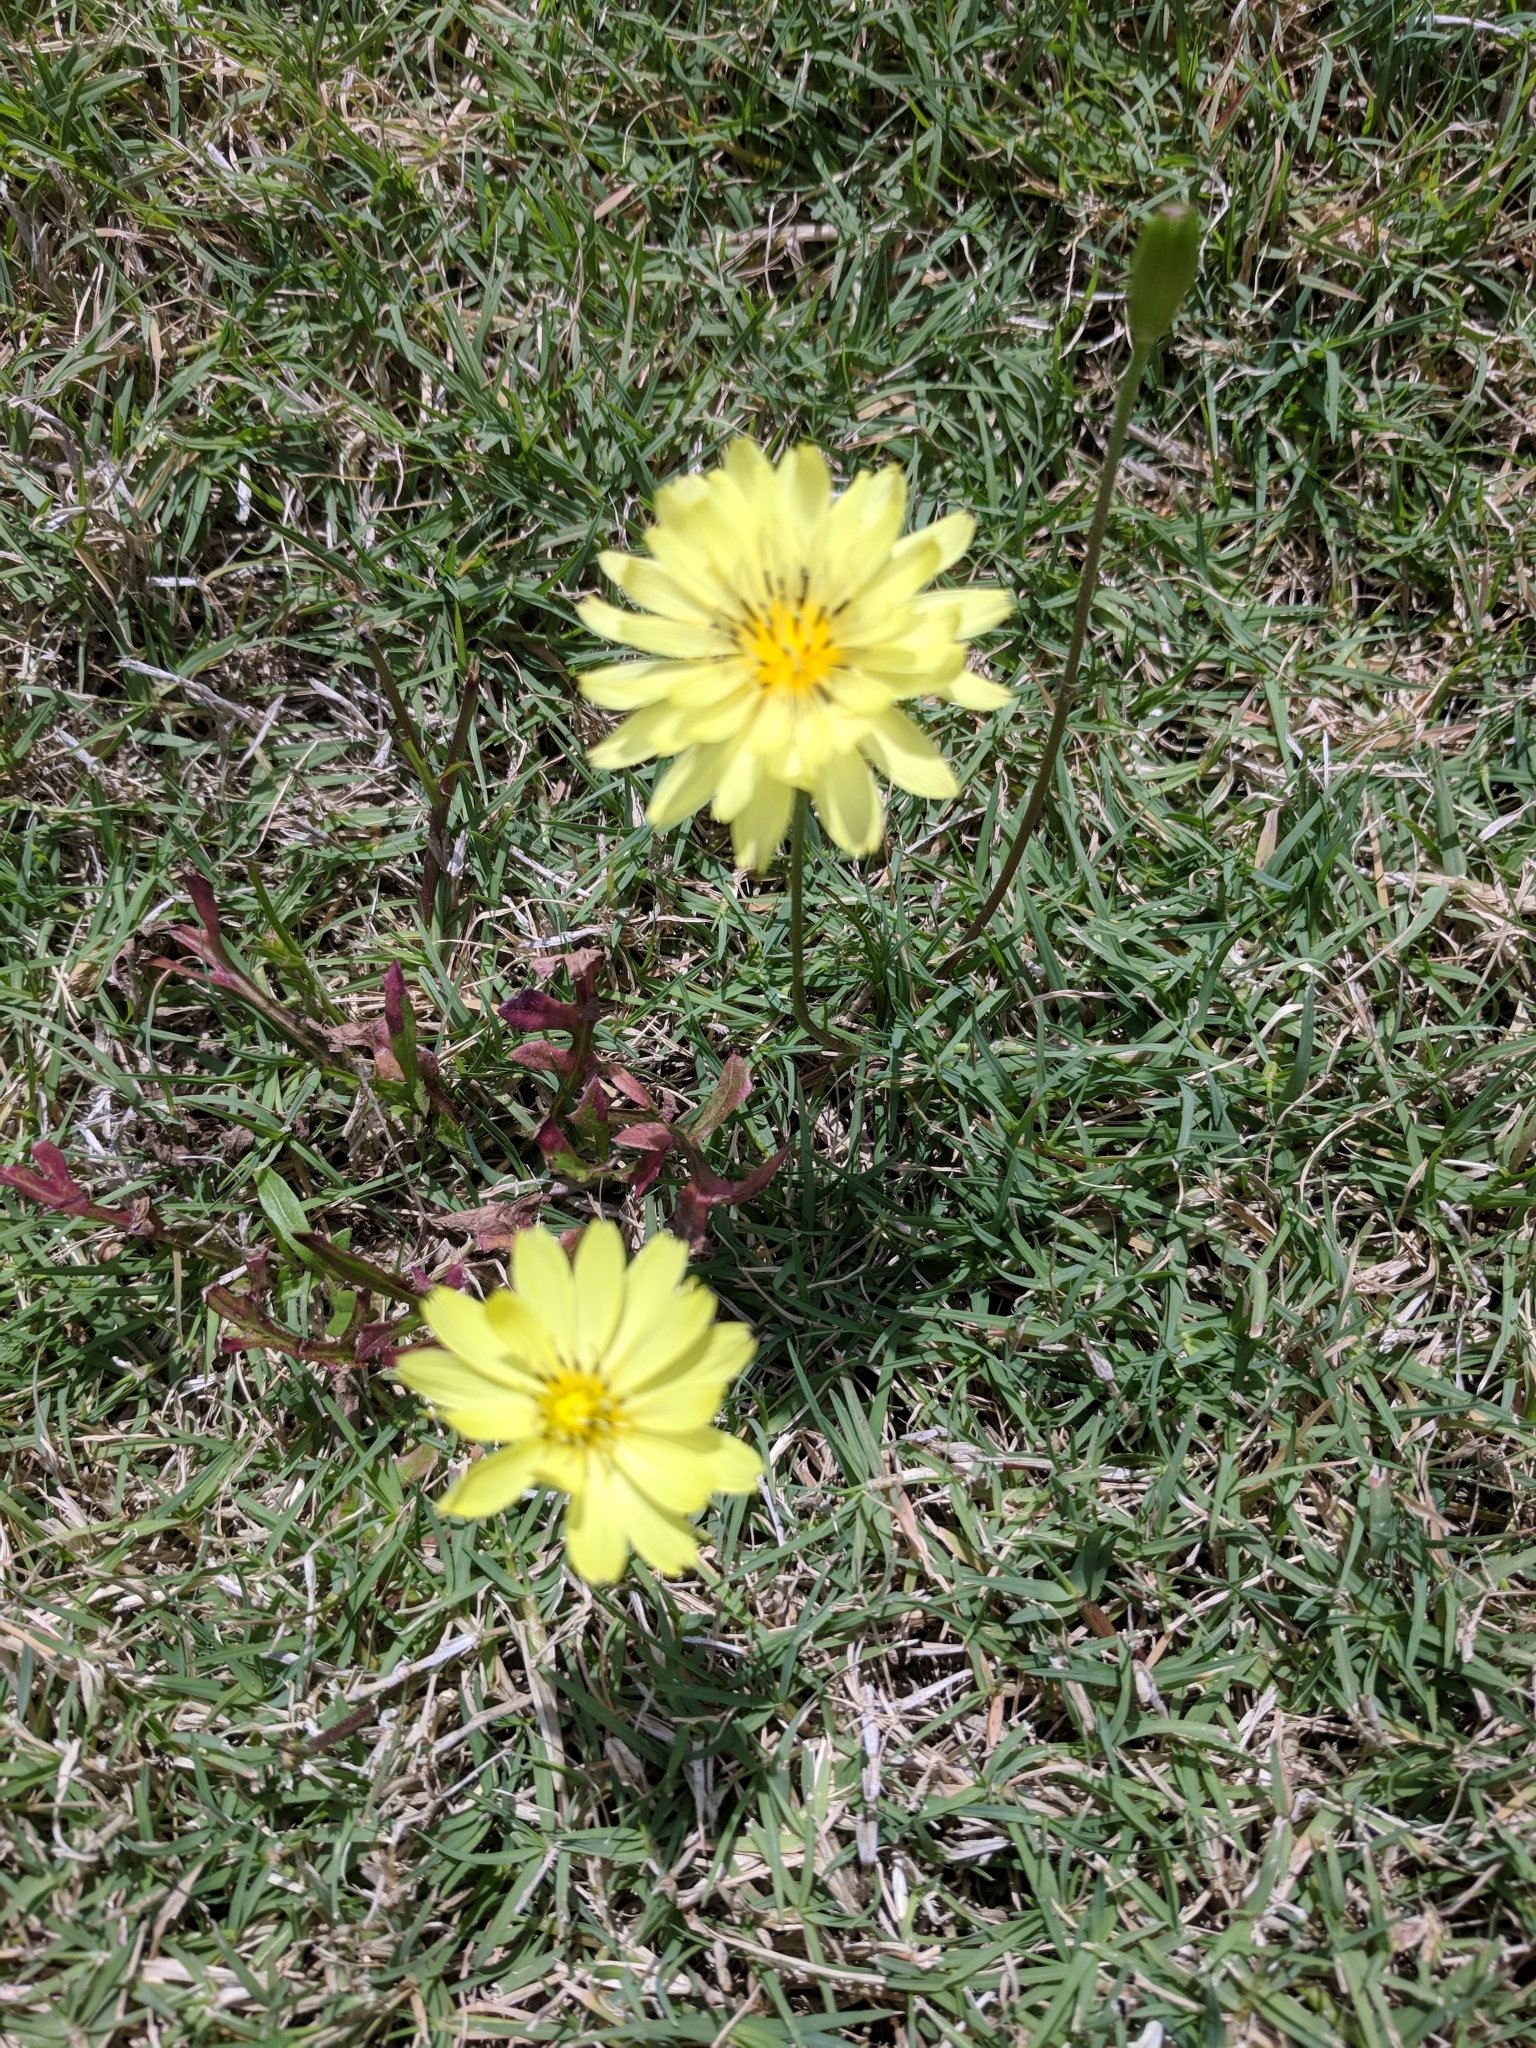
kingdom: Plantae
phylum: Tracheophyta
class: Magnoliopsida
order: Asterales
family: Asteraceae
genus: Pyrrhopappus
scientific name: Pyrrhopappus pauciflorus
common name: Texas false dandelion
